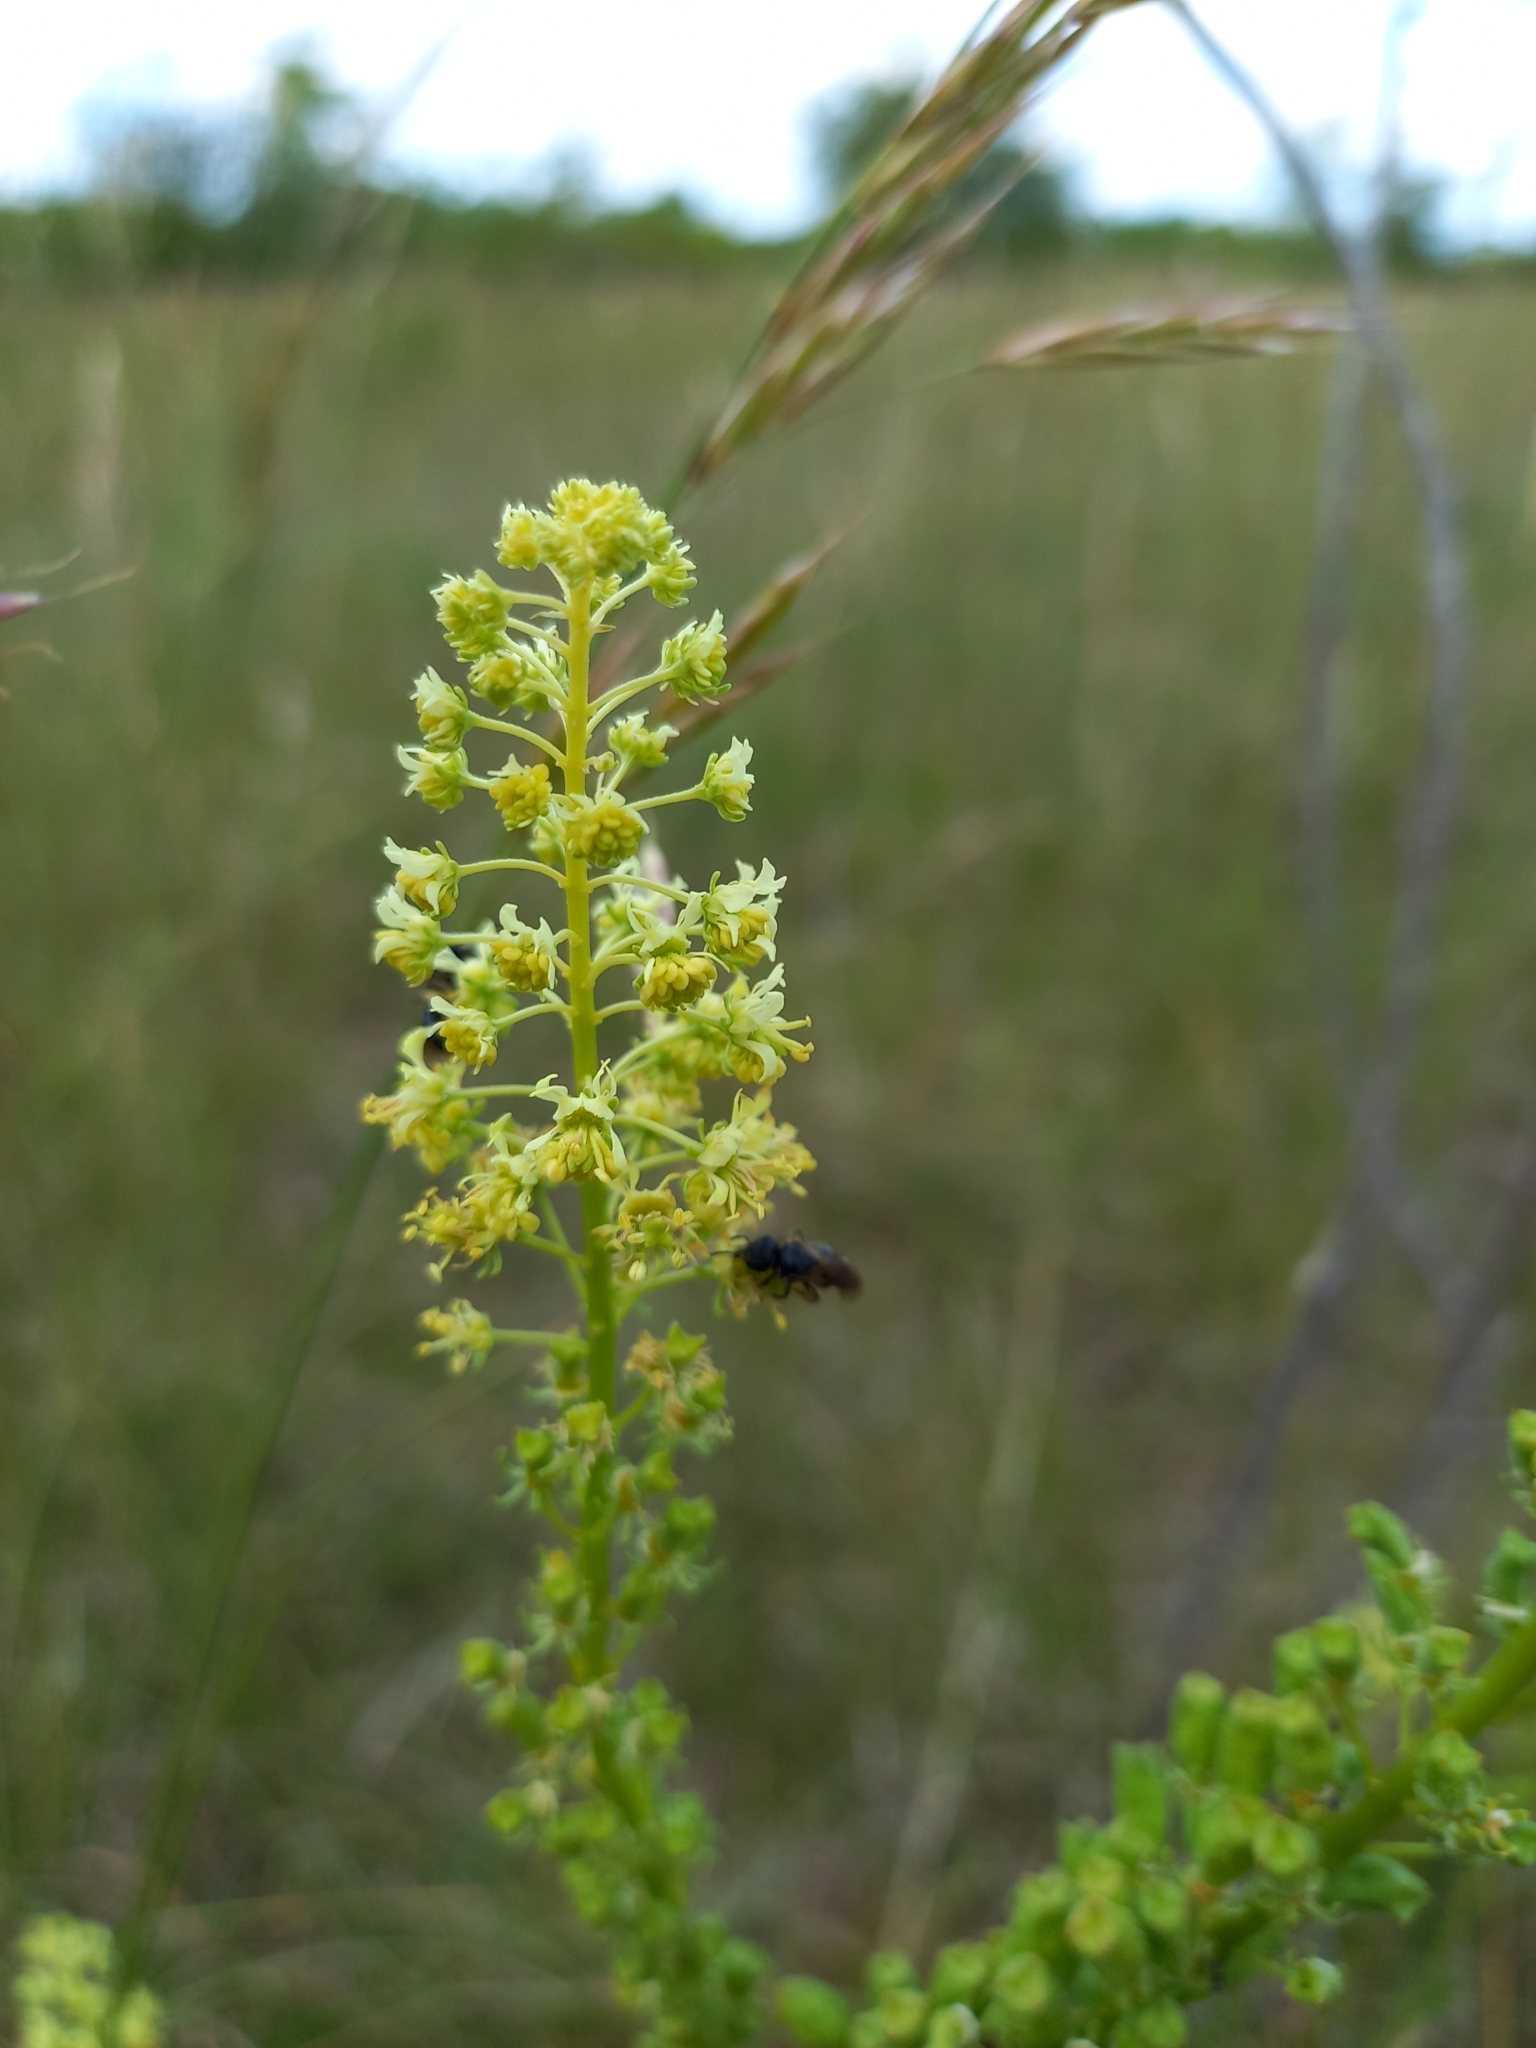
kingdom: Plantae
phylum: Tracheophyta
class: Magnoliopsida
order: Brassicales
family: Resedaceae
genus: Reseda
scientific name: Reseda lutea
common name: Wild mignonette
